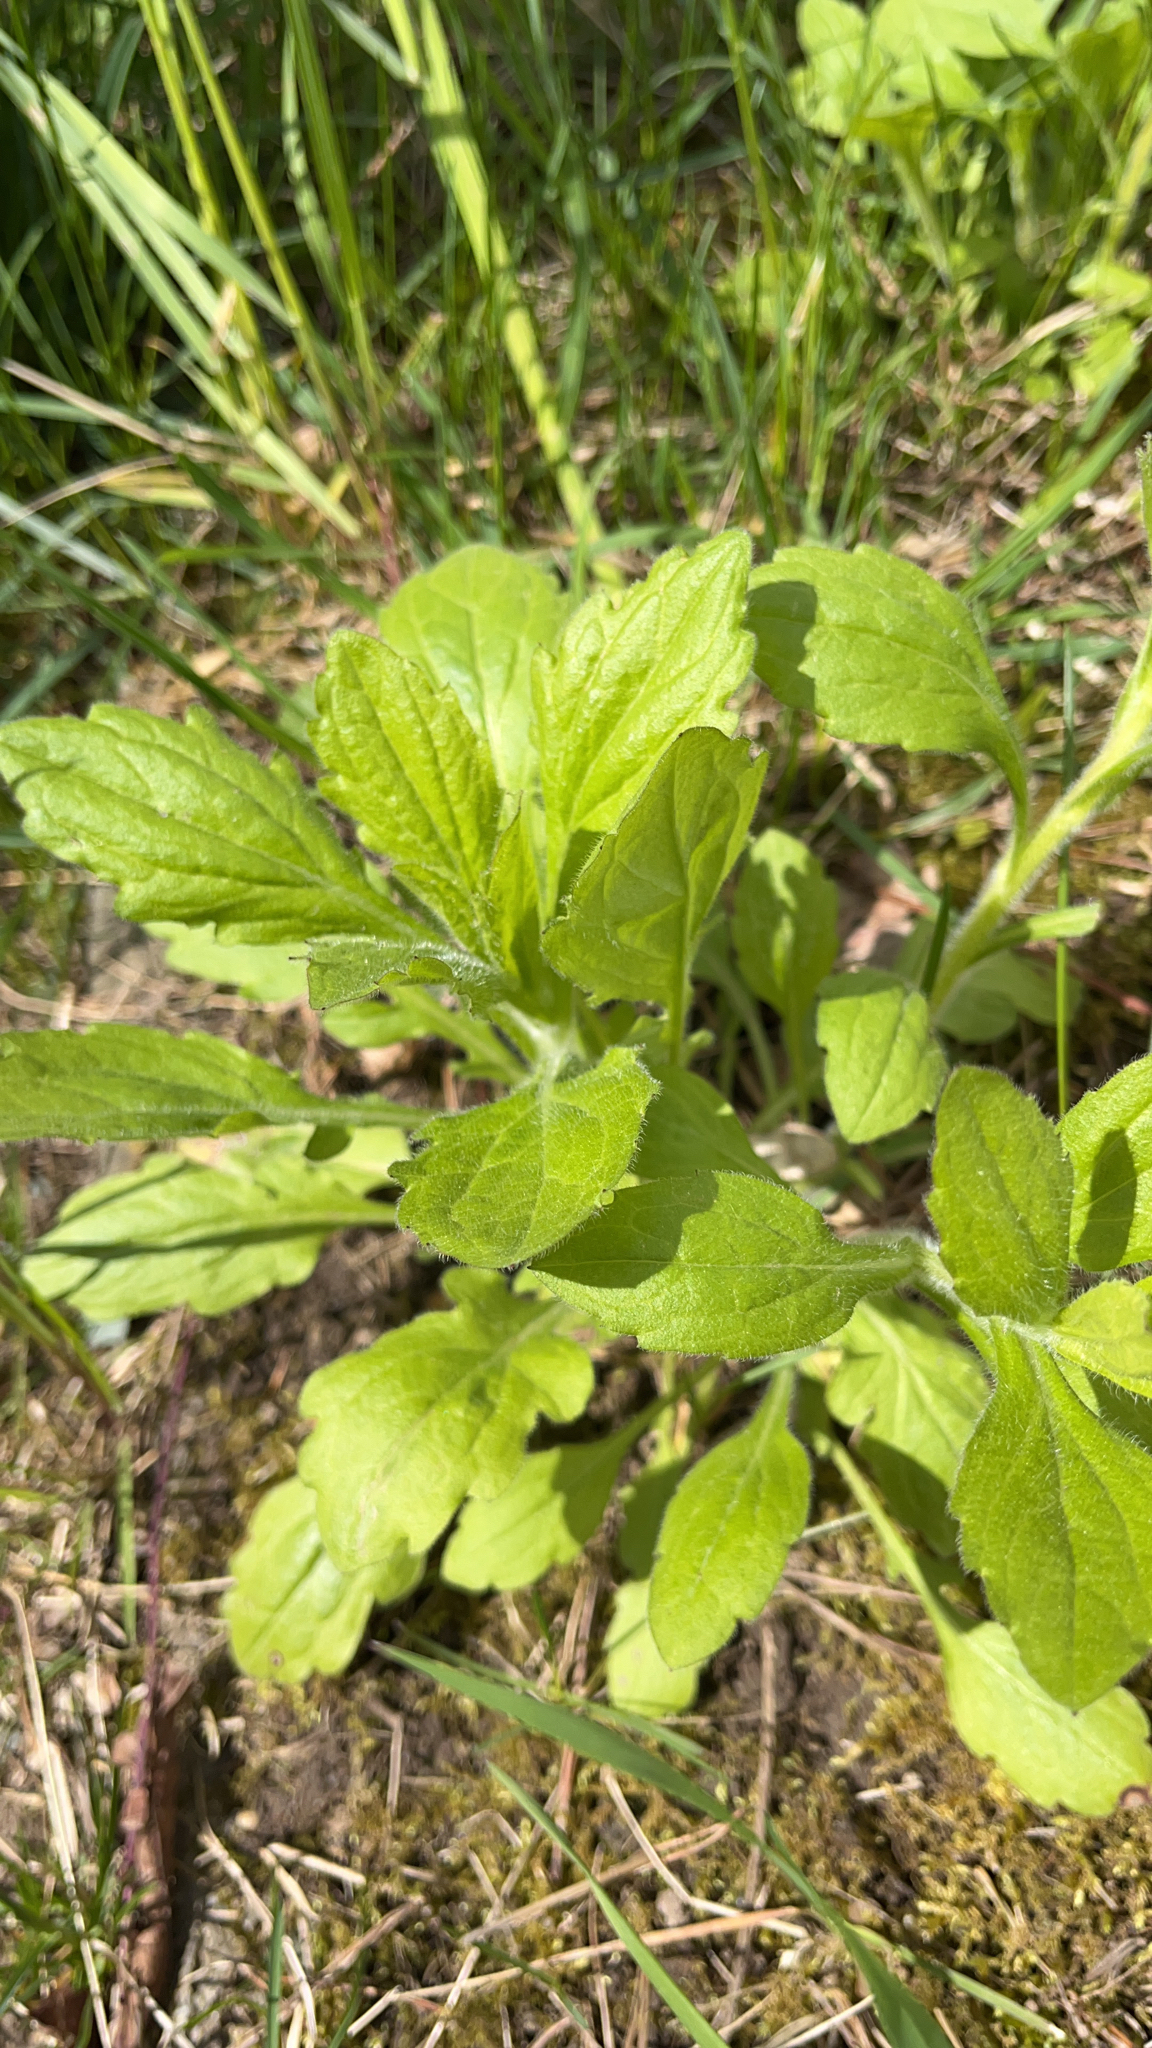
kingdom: Plantae
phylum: Tracheophyta
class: Magnoliopsida
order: Asterales
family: Asteraceae
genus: Erigeron
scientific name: Erigeron annuus
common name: Tall fleabane
